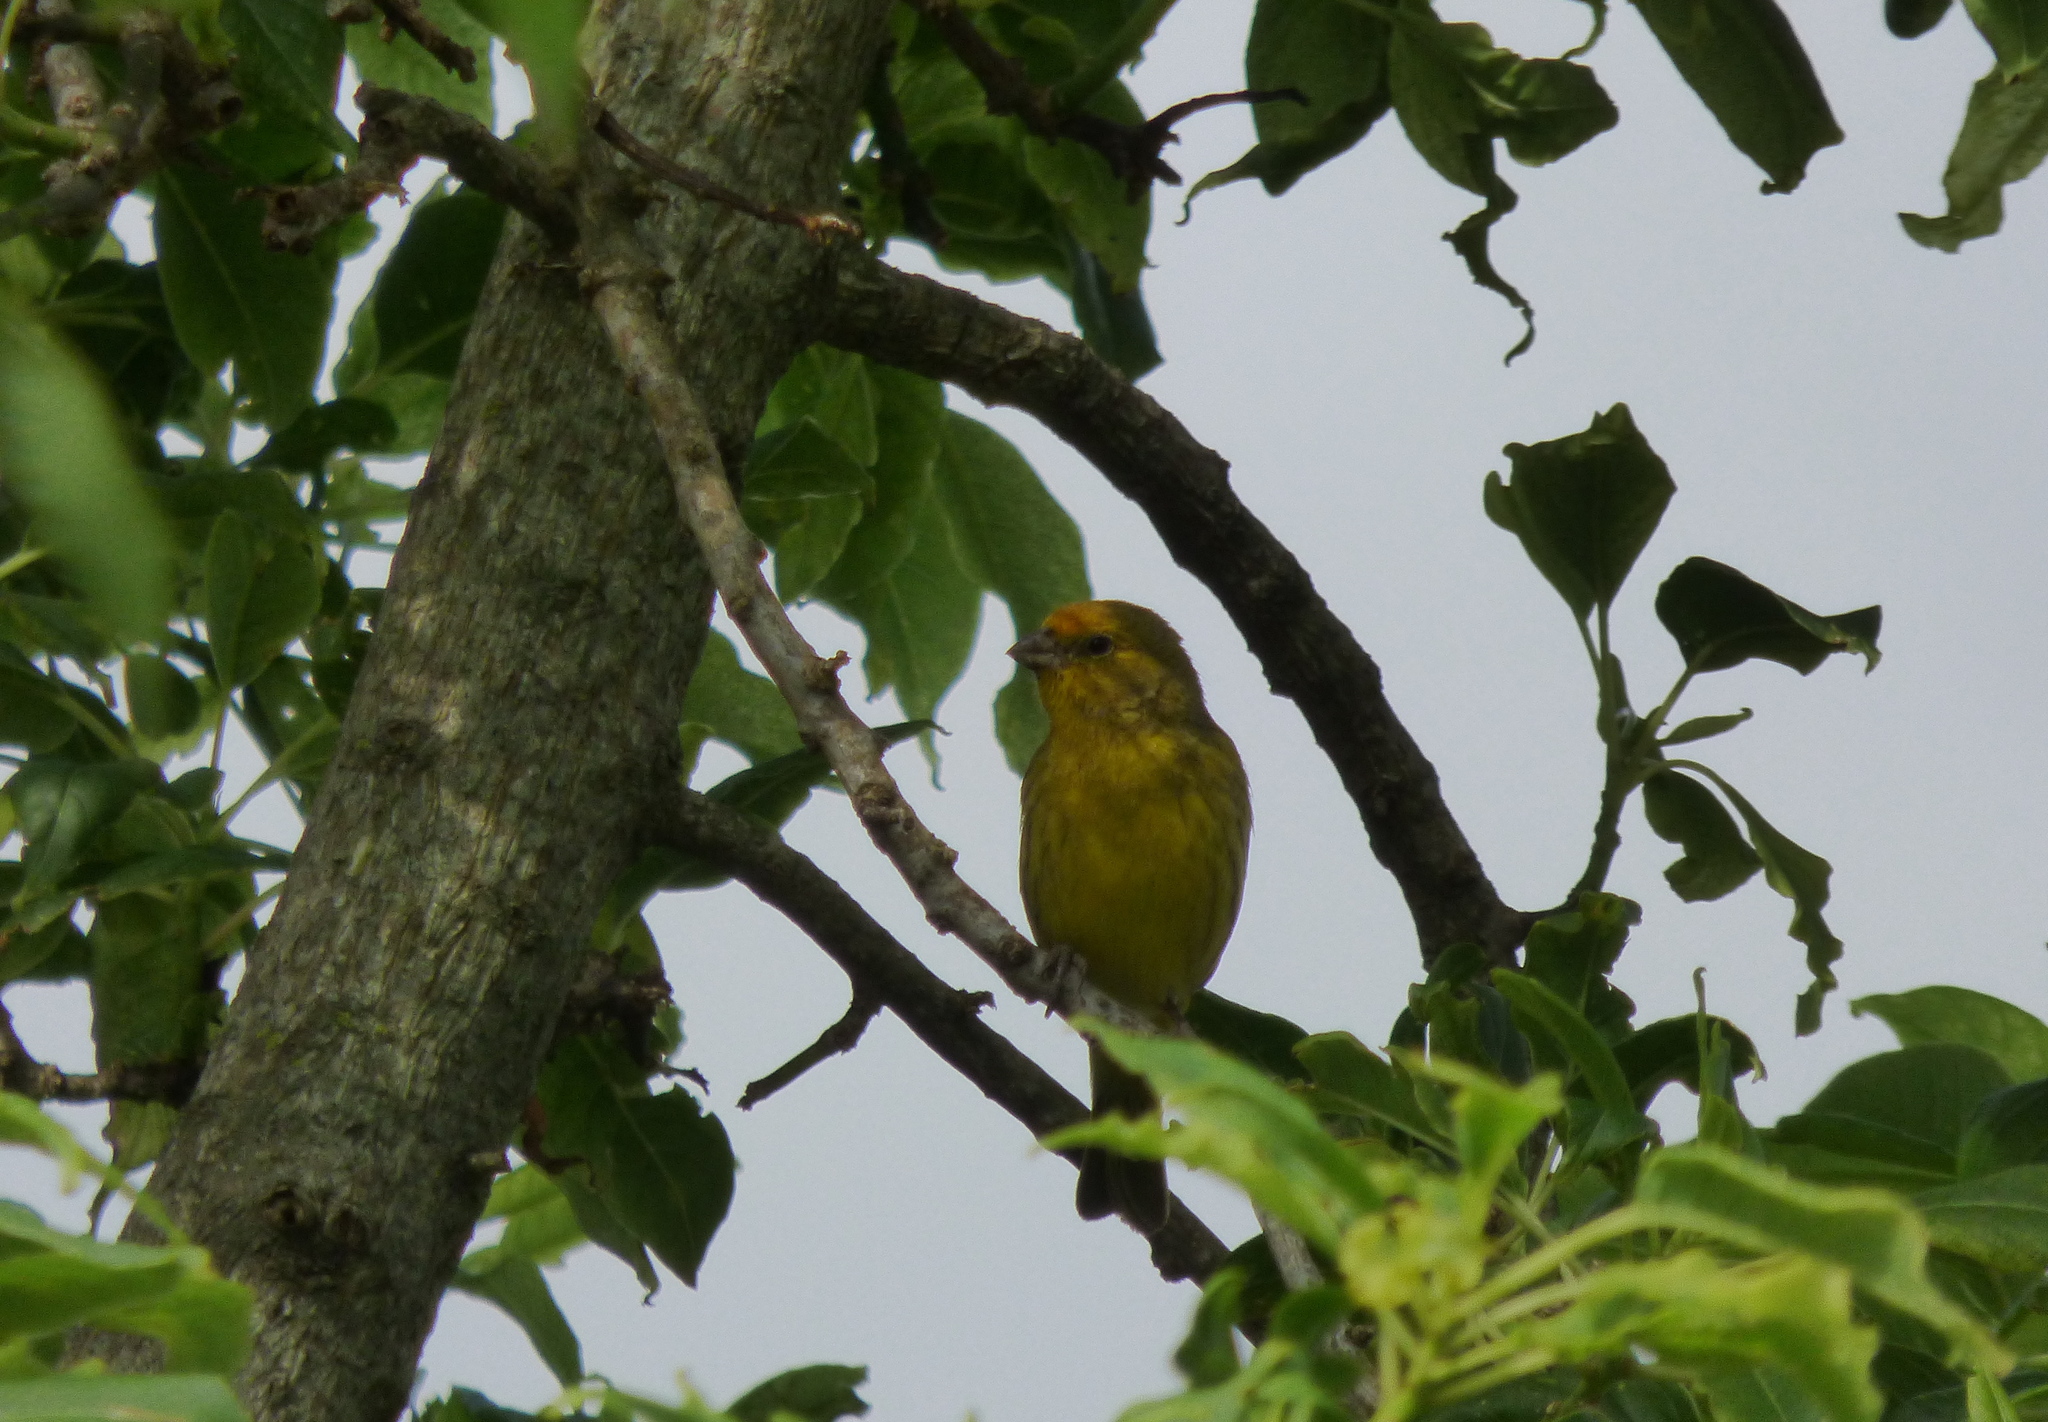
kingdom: Animalia
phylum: Chordata
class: Aves
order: Passeriformes
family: Thraupidae
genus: Sicalis
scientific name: Sicalis flaveola
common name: Saffron finch
